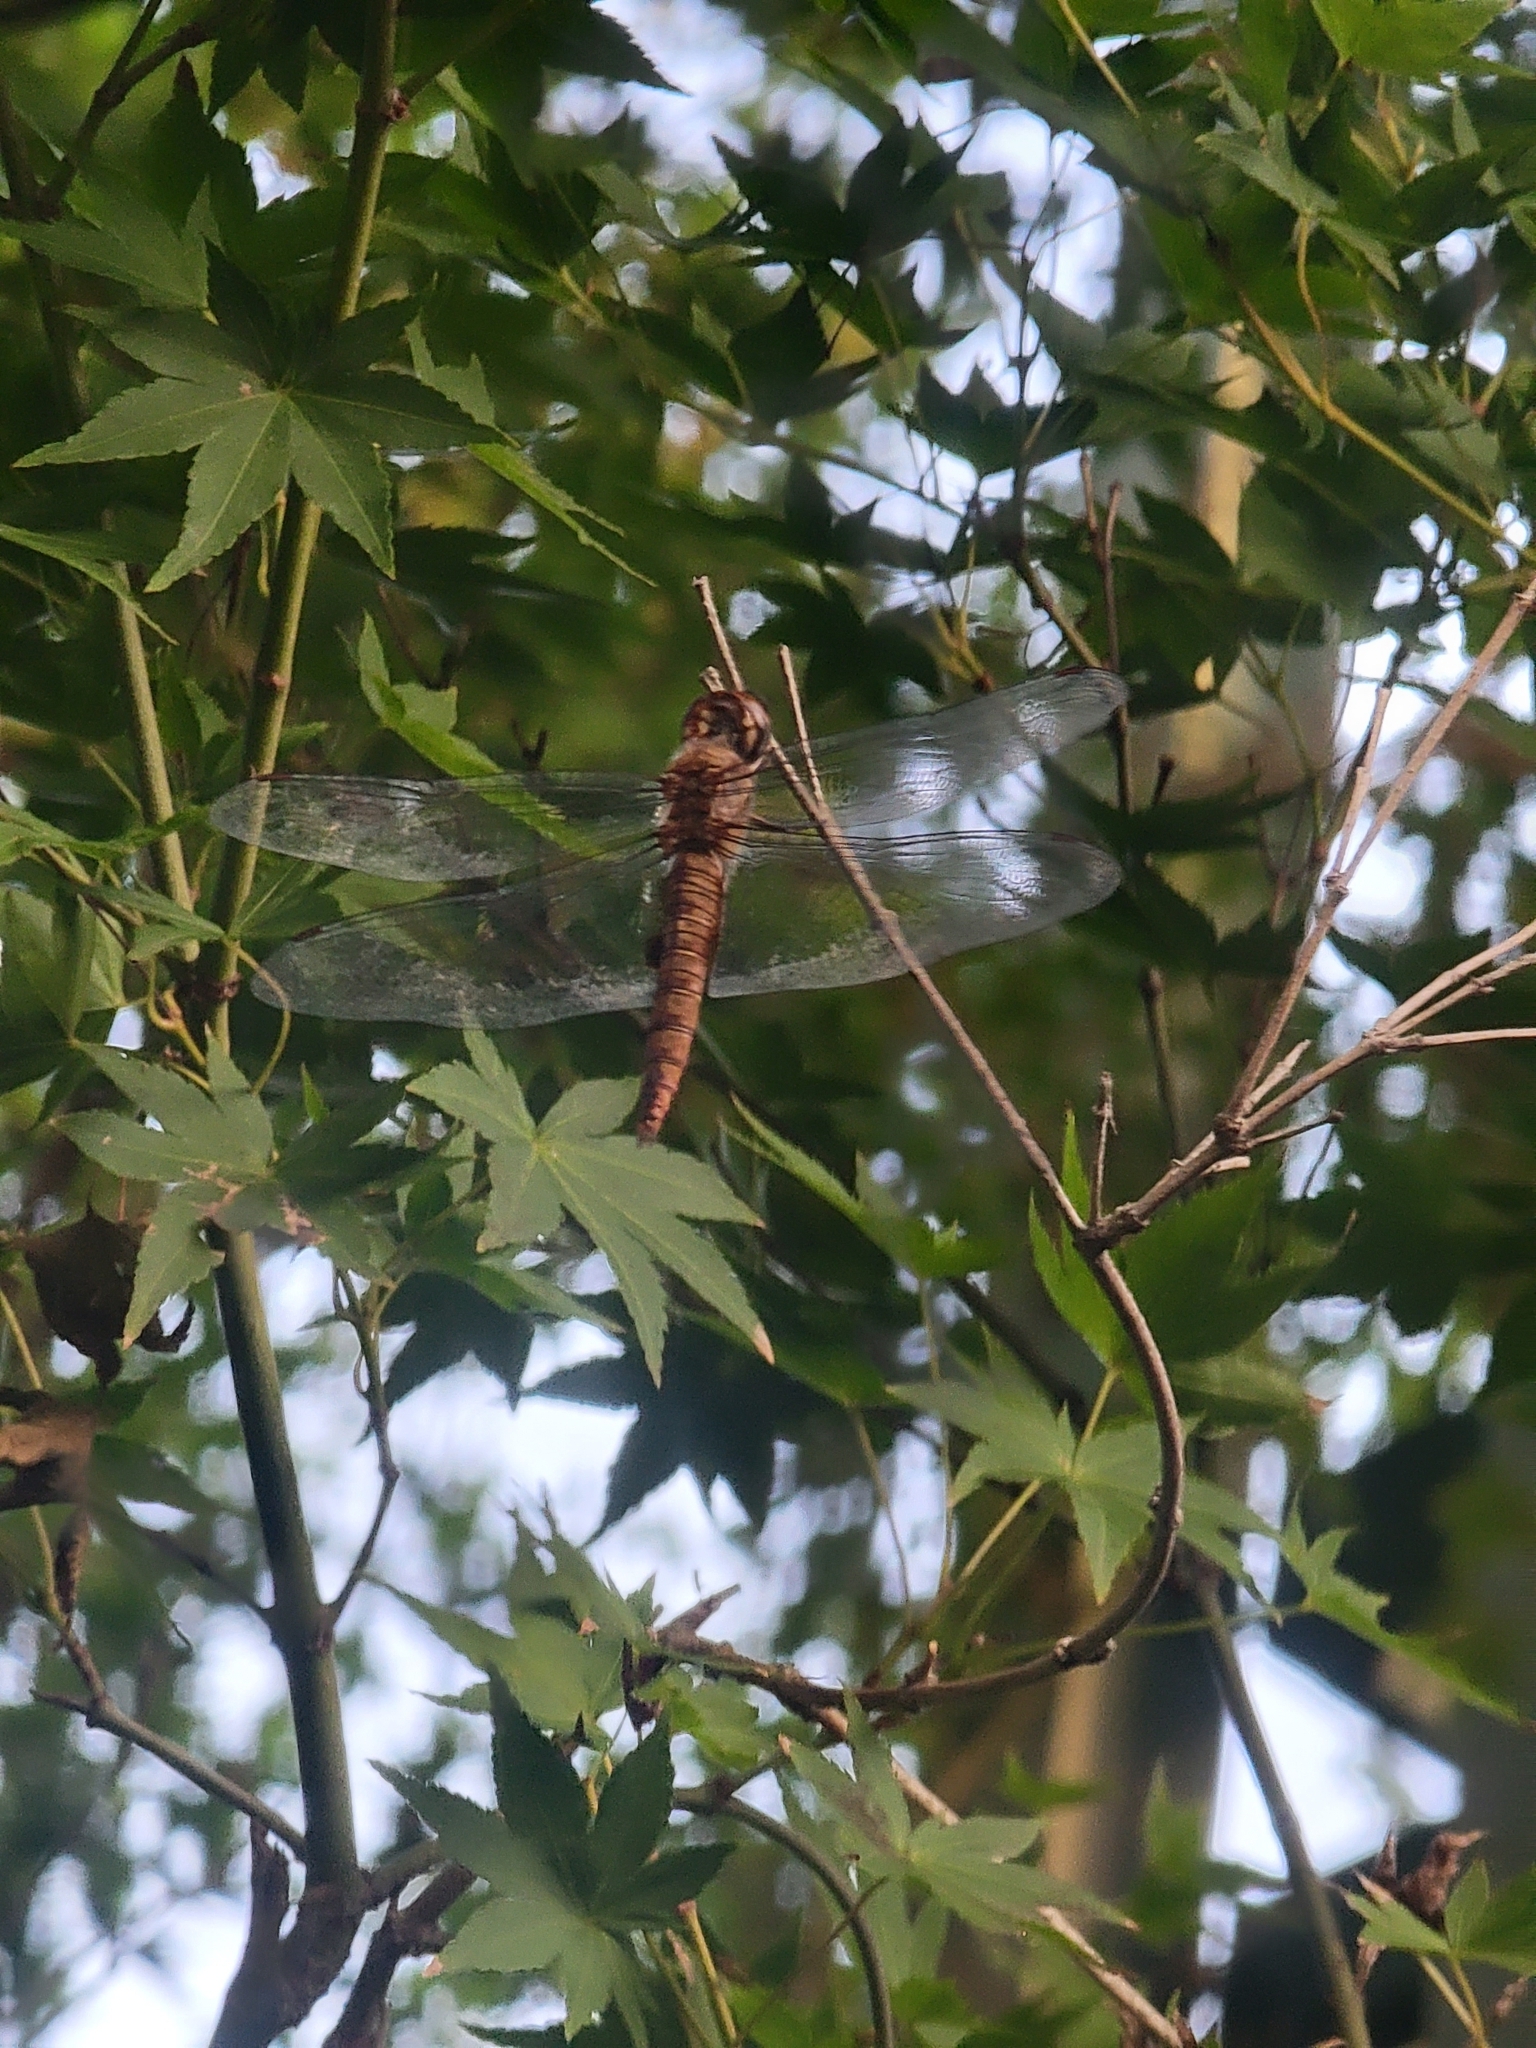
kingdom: Animalia
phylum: Arthropoda
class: Insecta
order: Odonata
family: Libellulidae
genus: Pantala
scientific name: Pantala hymenaea
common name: Spot-winged glider
